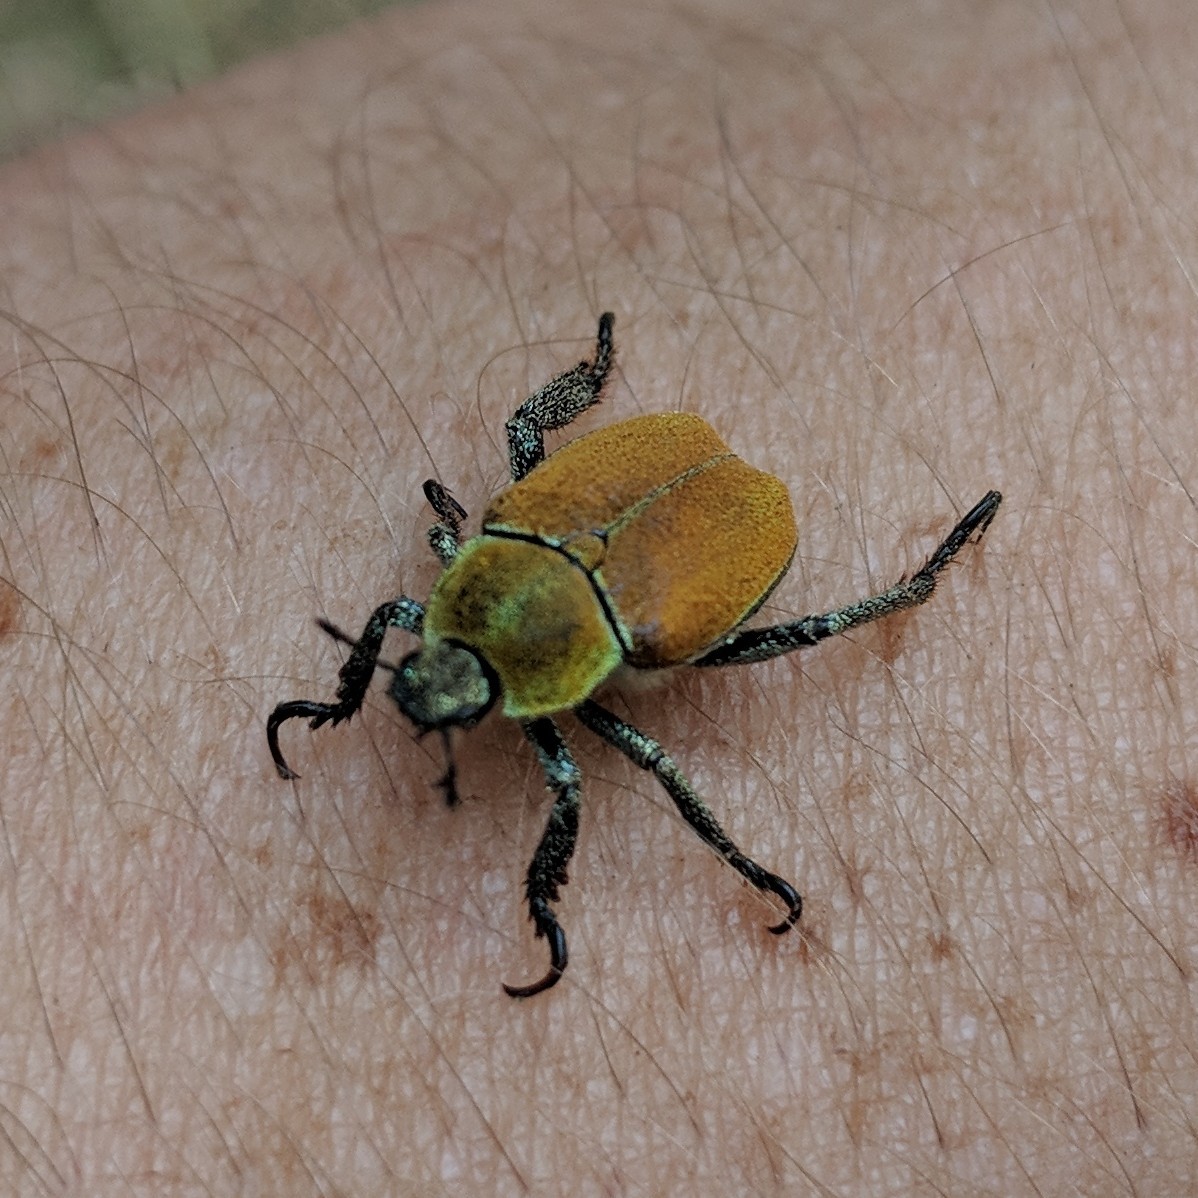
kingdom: Animalia
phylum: Arthropoda
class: Insecta
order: Coleoptera
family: Scarabaeidae
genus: Hoplia
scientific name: Hoplia argentea
